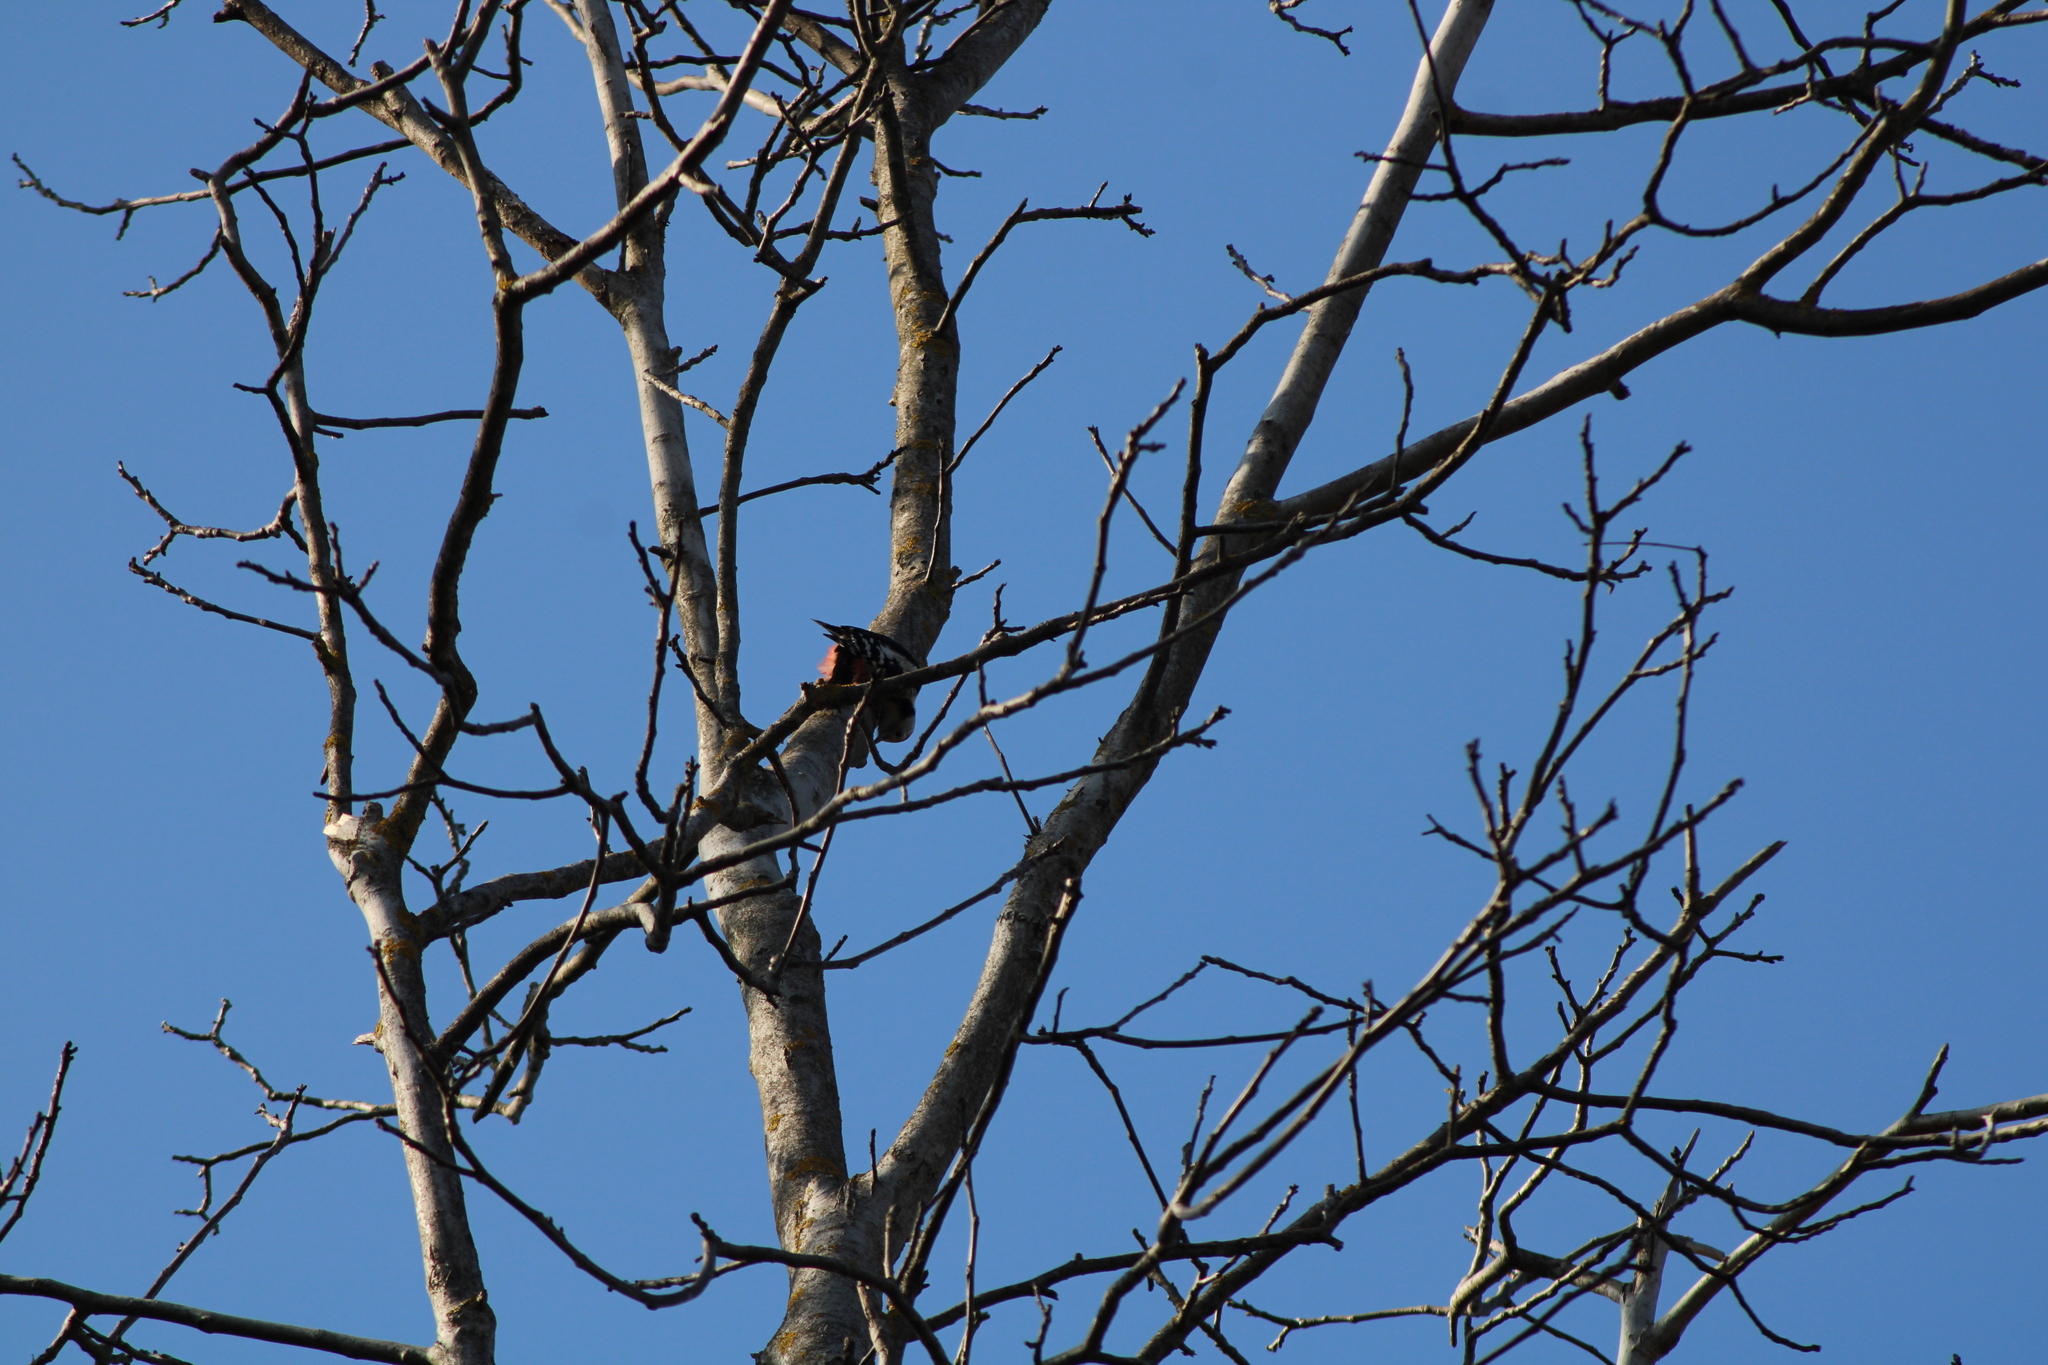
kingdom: Animalia
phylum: Chordata
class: Aves
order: Piciformes
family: Picidae
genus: Dendrocoptes
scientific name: Dendrocoptes medius
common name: Middle spotted woodpecker
